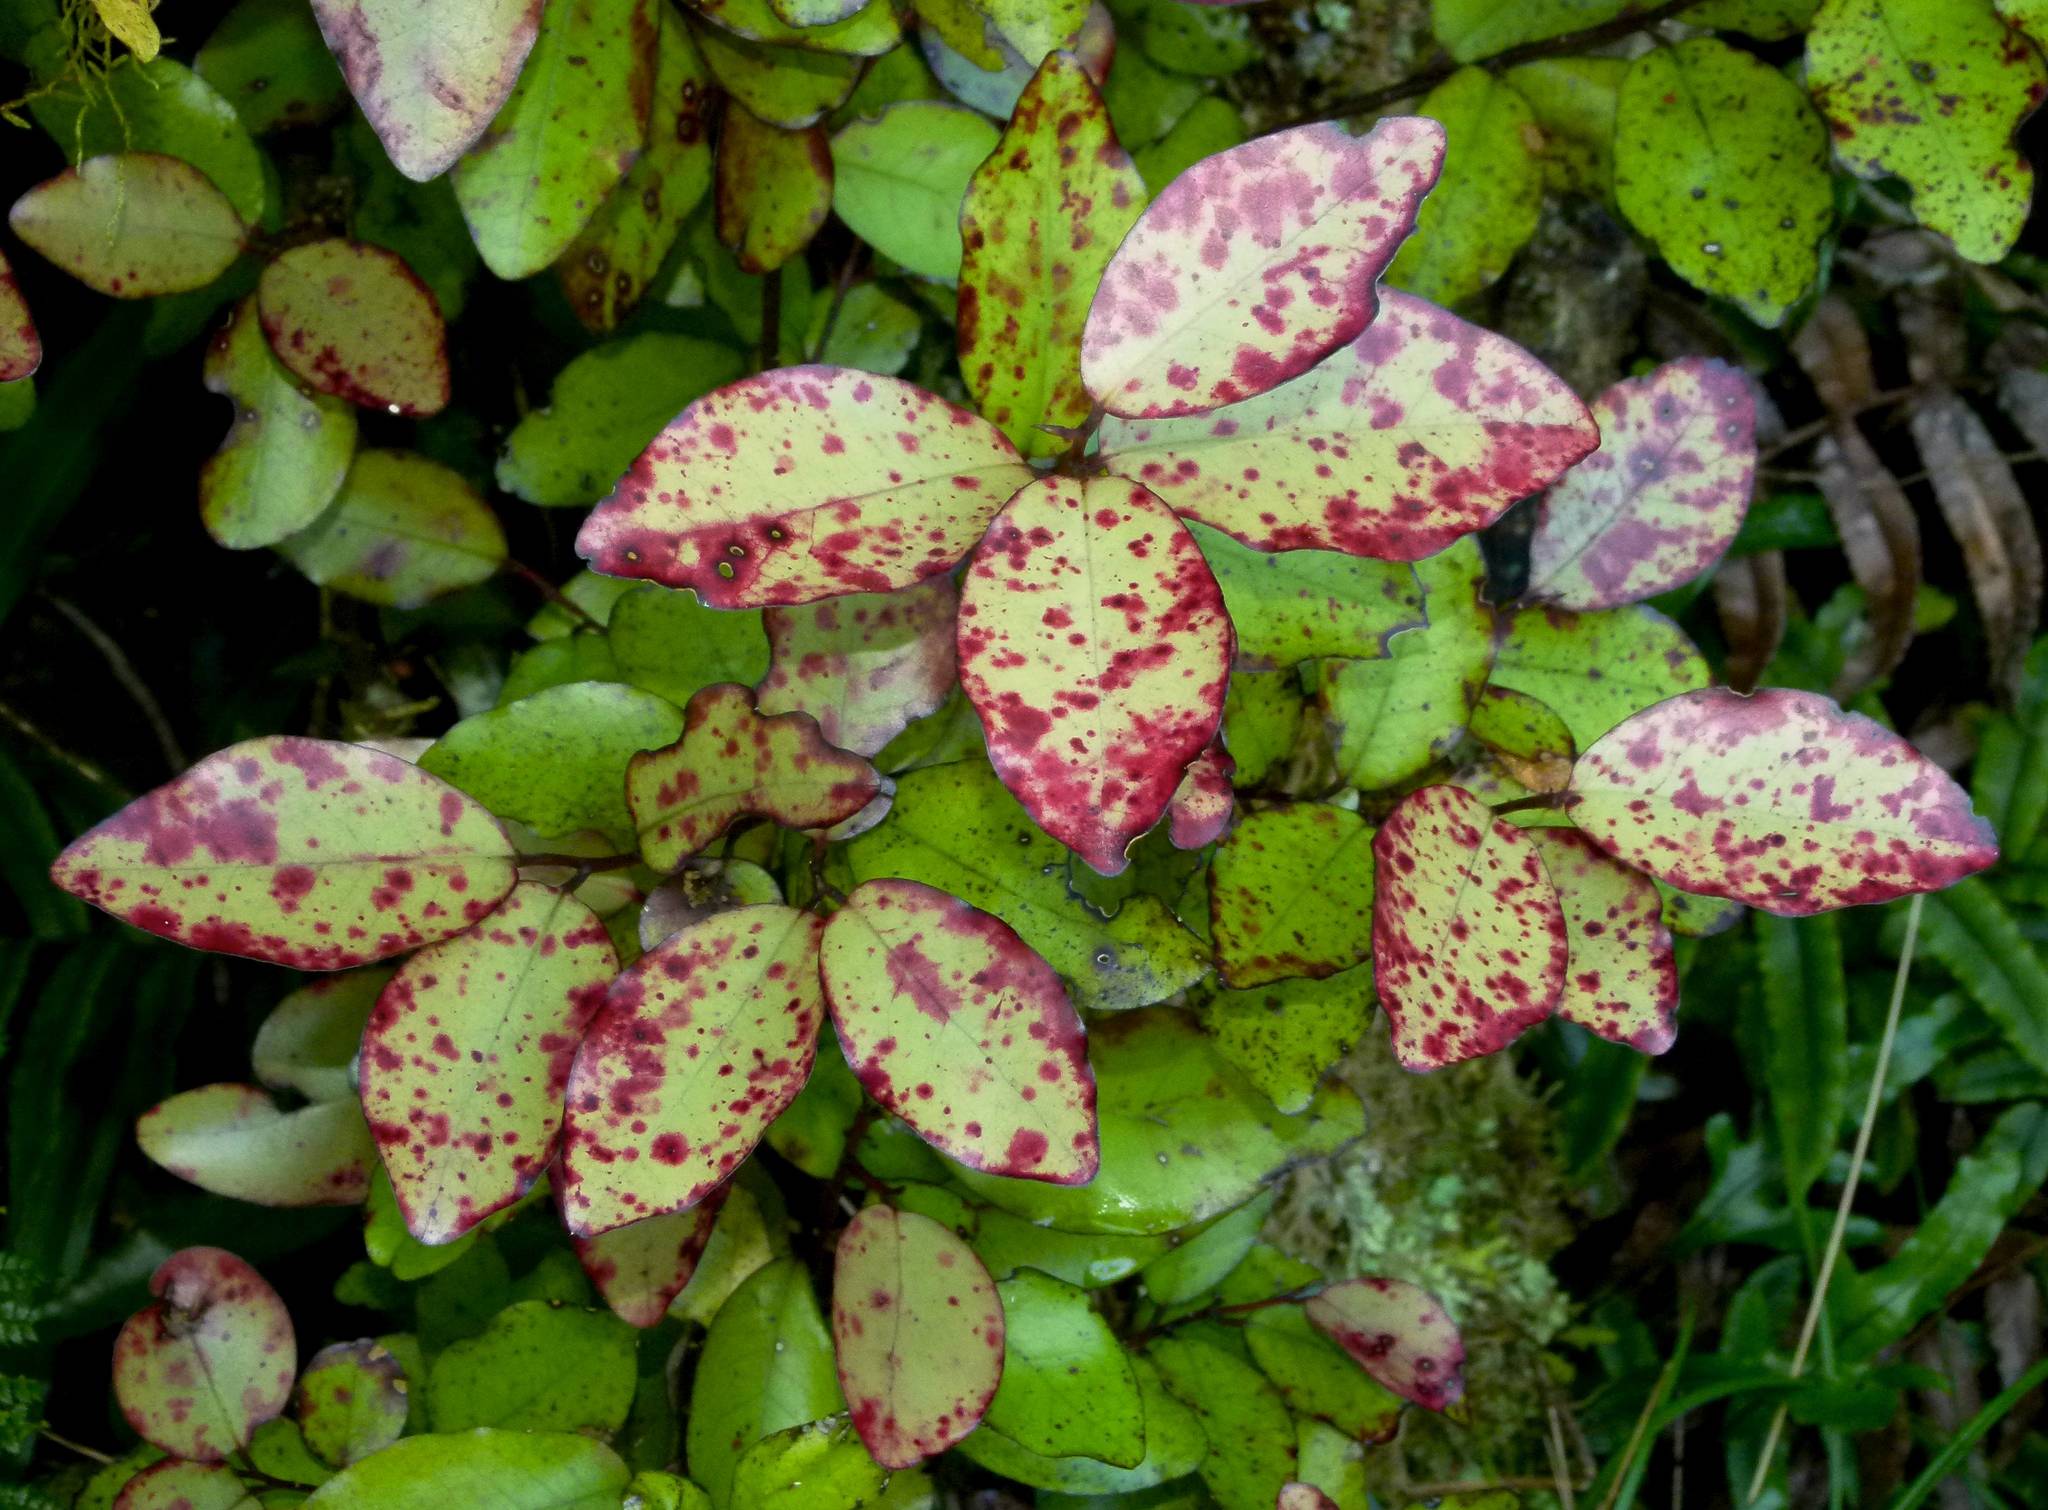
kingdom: Plantae
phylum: Tracheophyta
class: Magnoliopsida
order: Canellales
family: Winteraceae
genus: Pseudowintera
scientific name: Pseudowintera colorata
